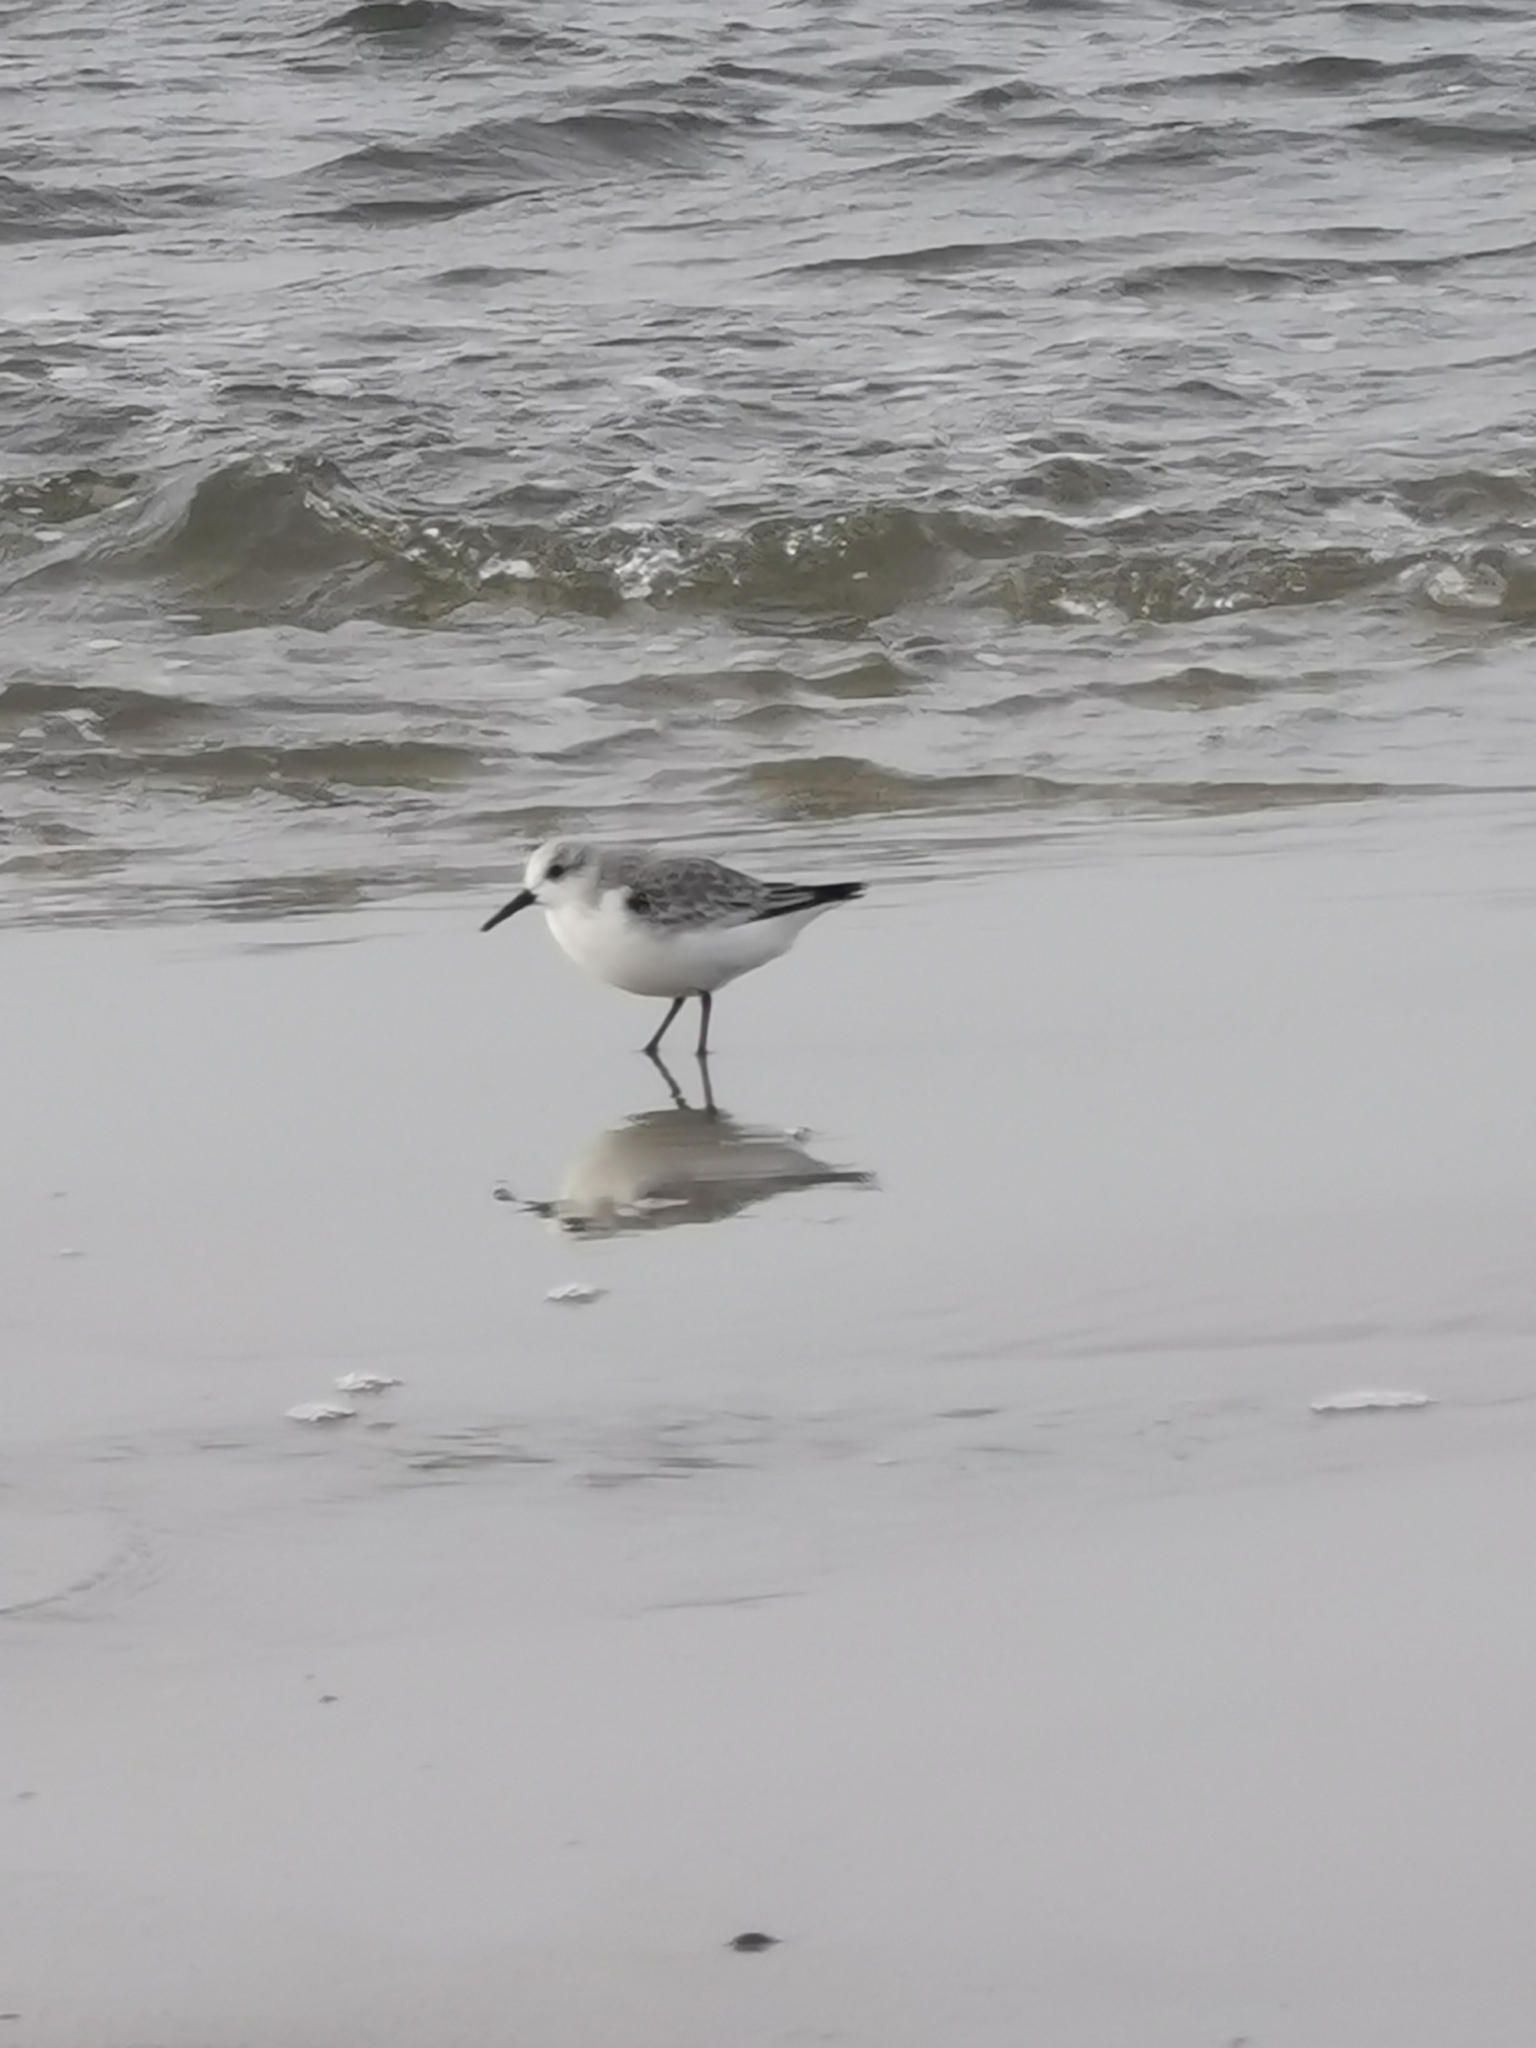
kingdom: Animalia
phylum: Chordata
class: Aves
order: Charadriiformes
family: Scolopacidae
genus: Calidris
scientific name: Calidris alba
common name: Sanderling
